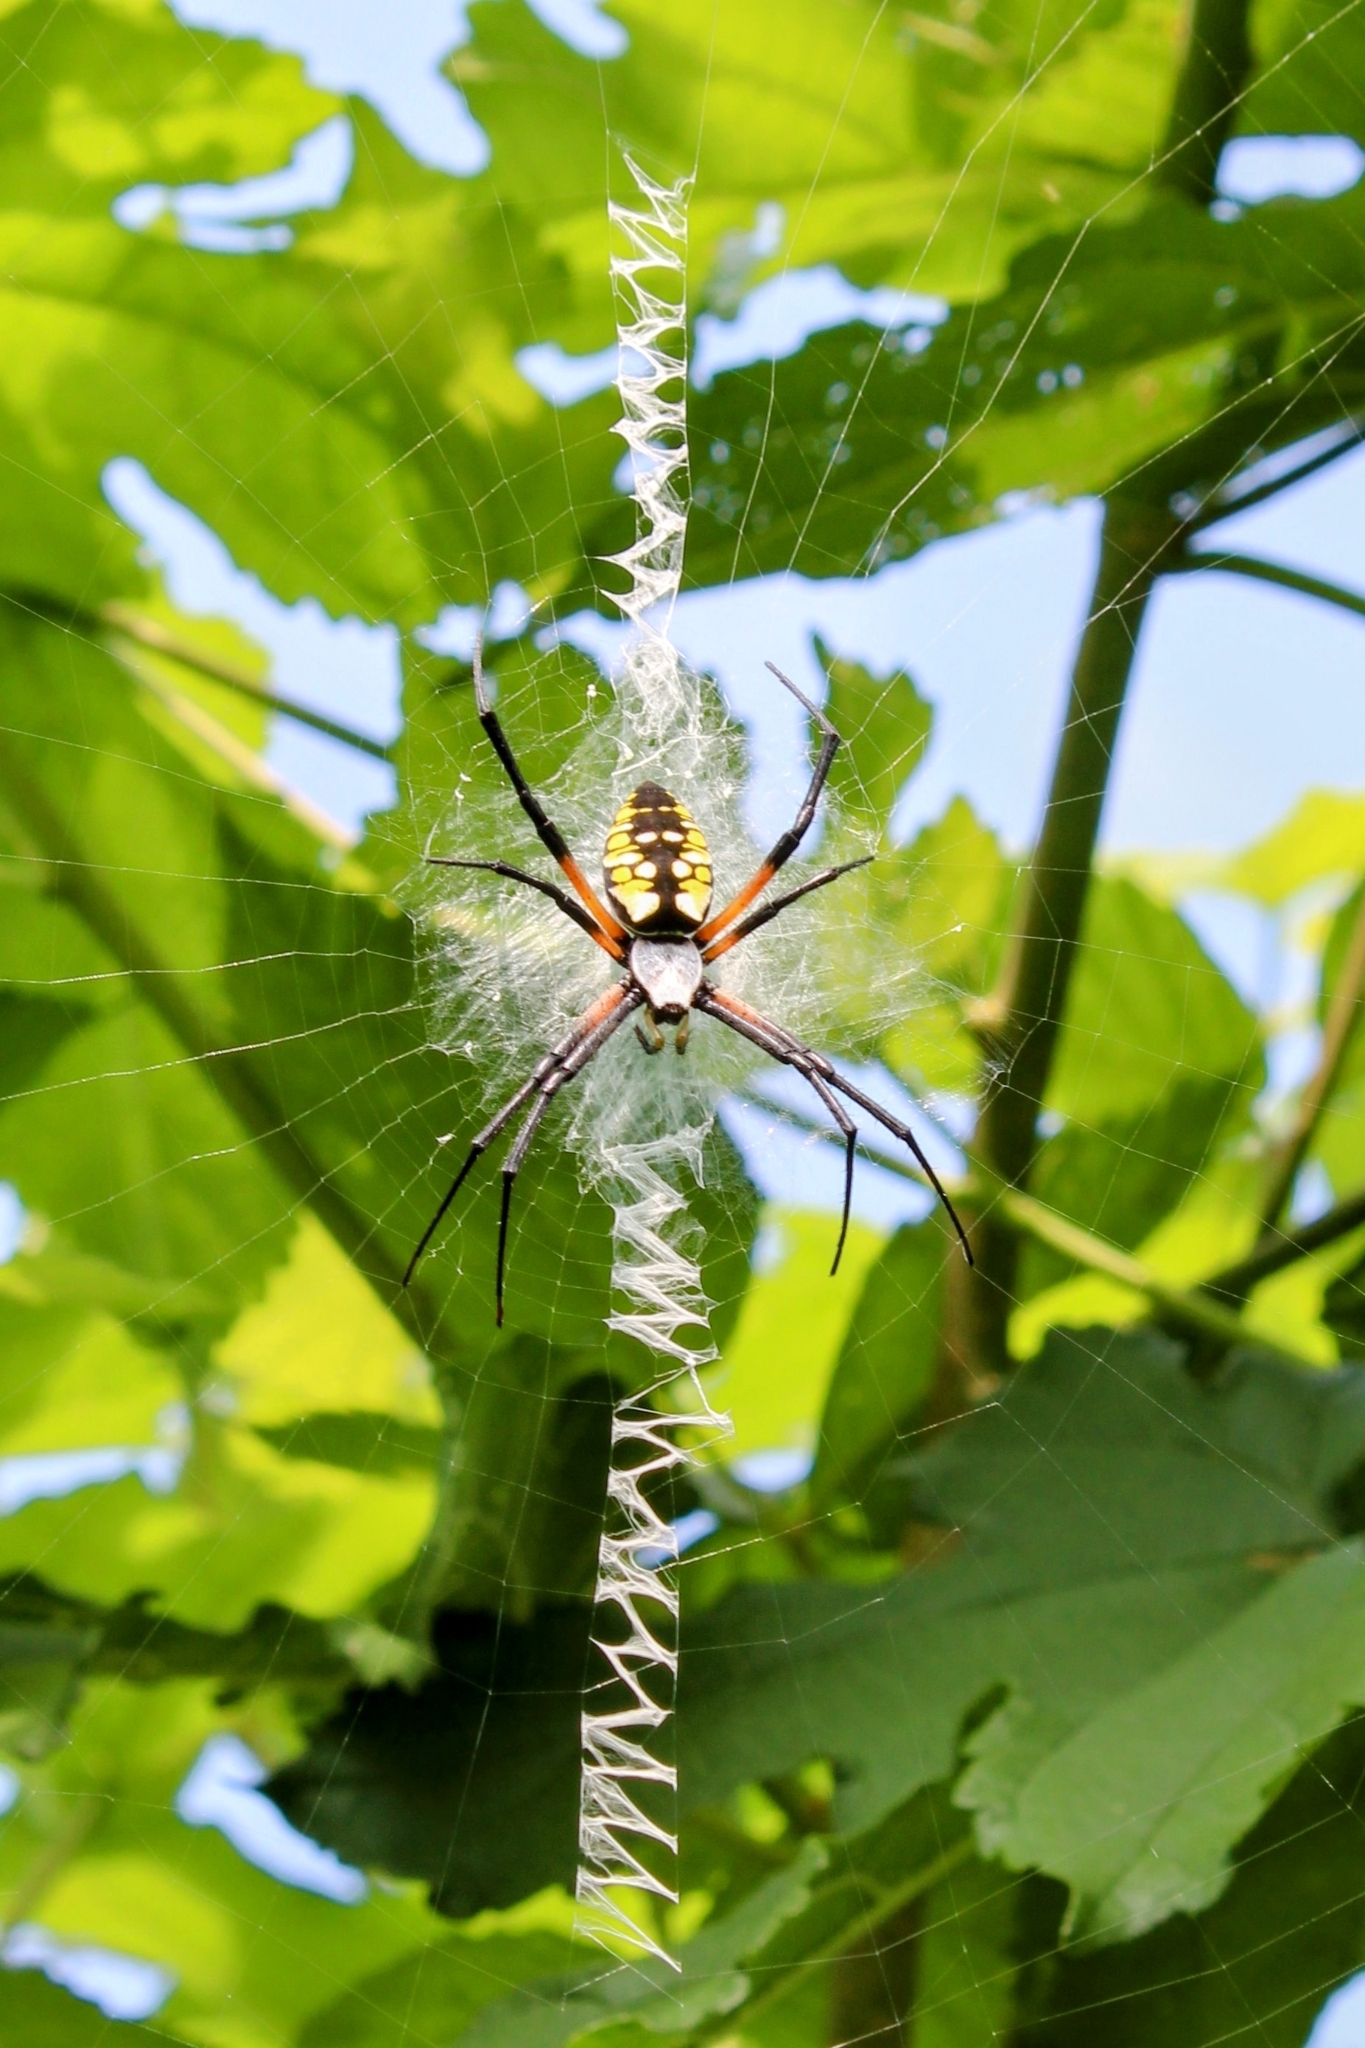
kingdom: Animalia
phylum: Arthropoda
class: Arachnida
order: Araneae
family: Araneidae
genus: Argiope
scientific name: Argiope aurantia
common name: Orb weavers
